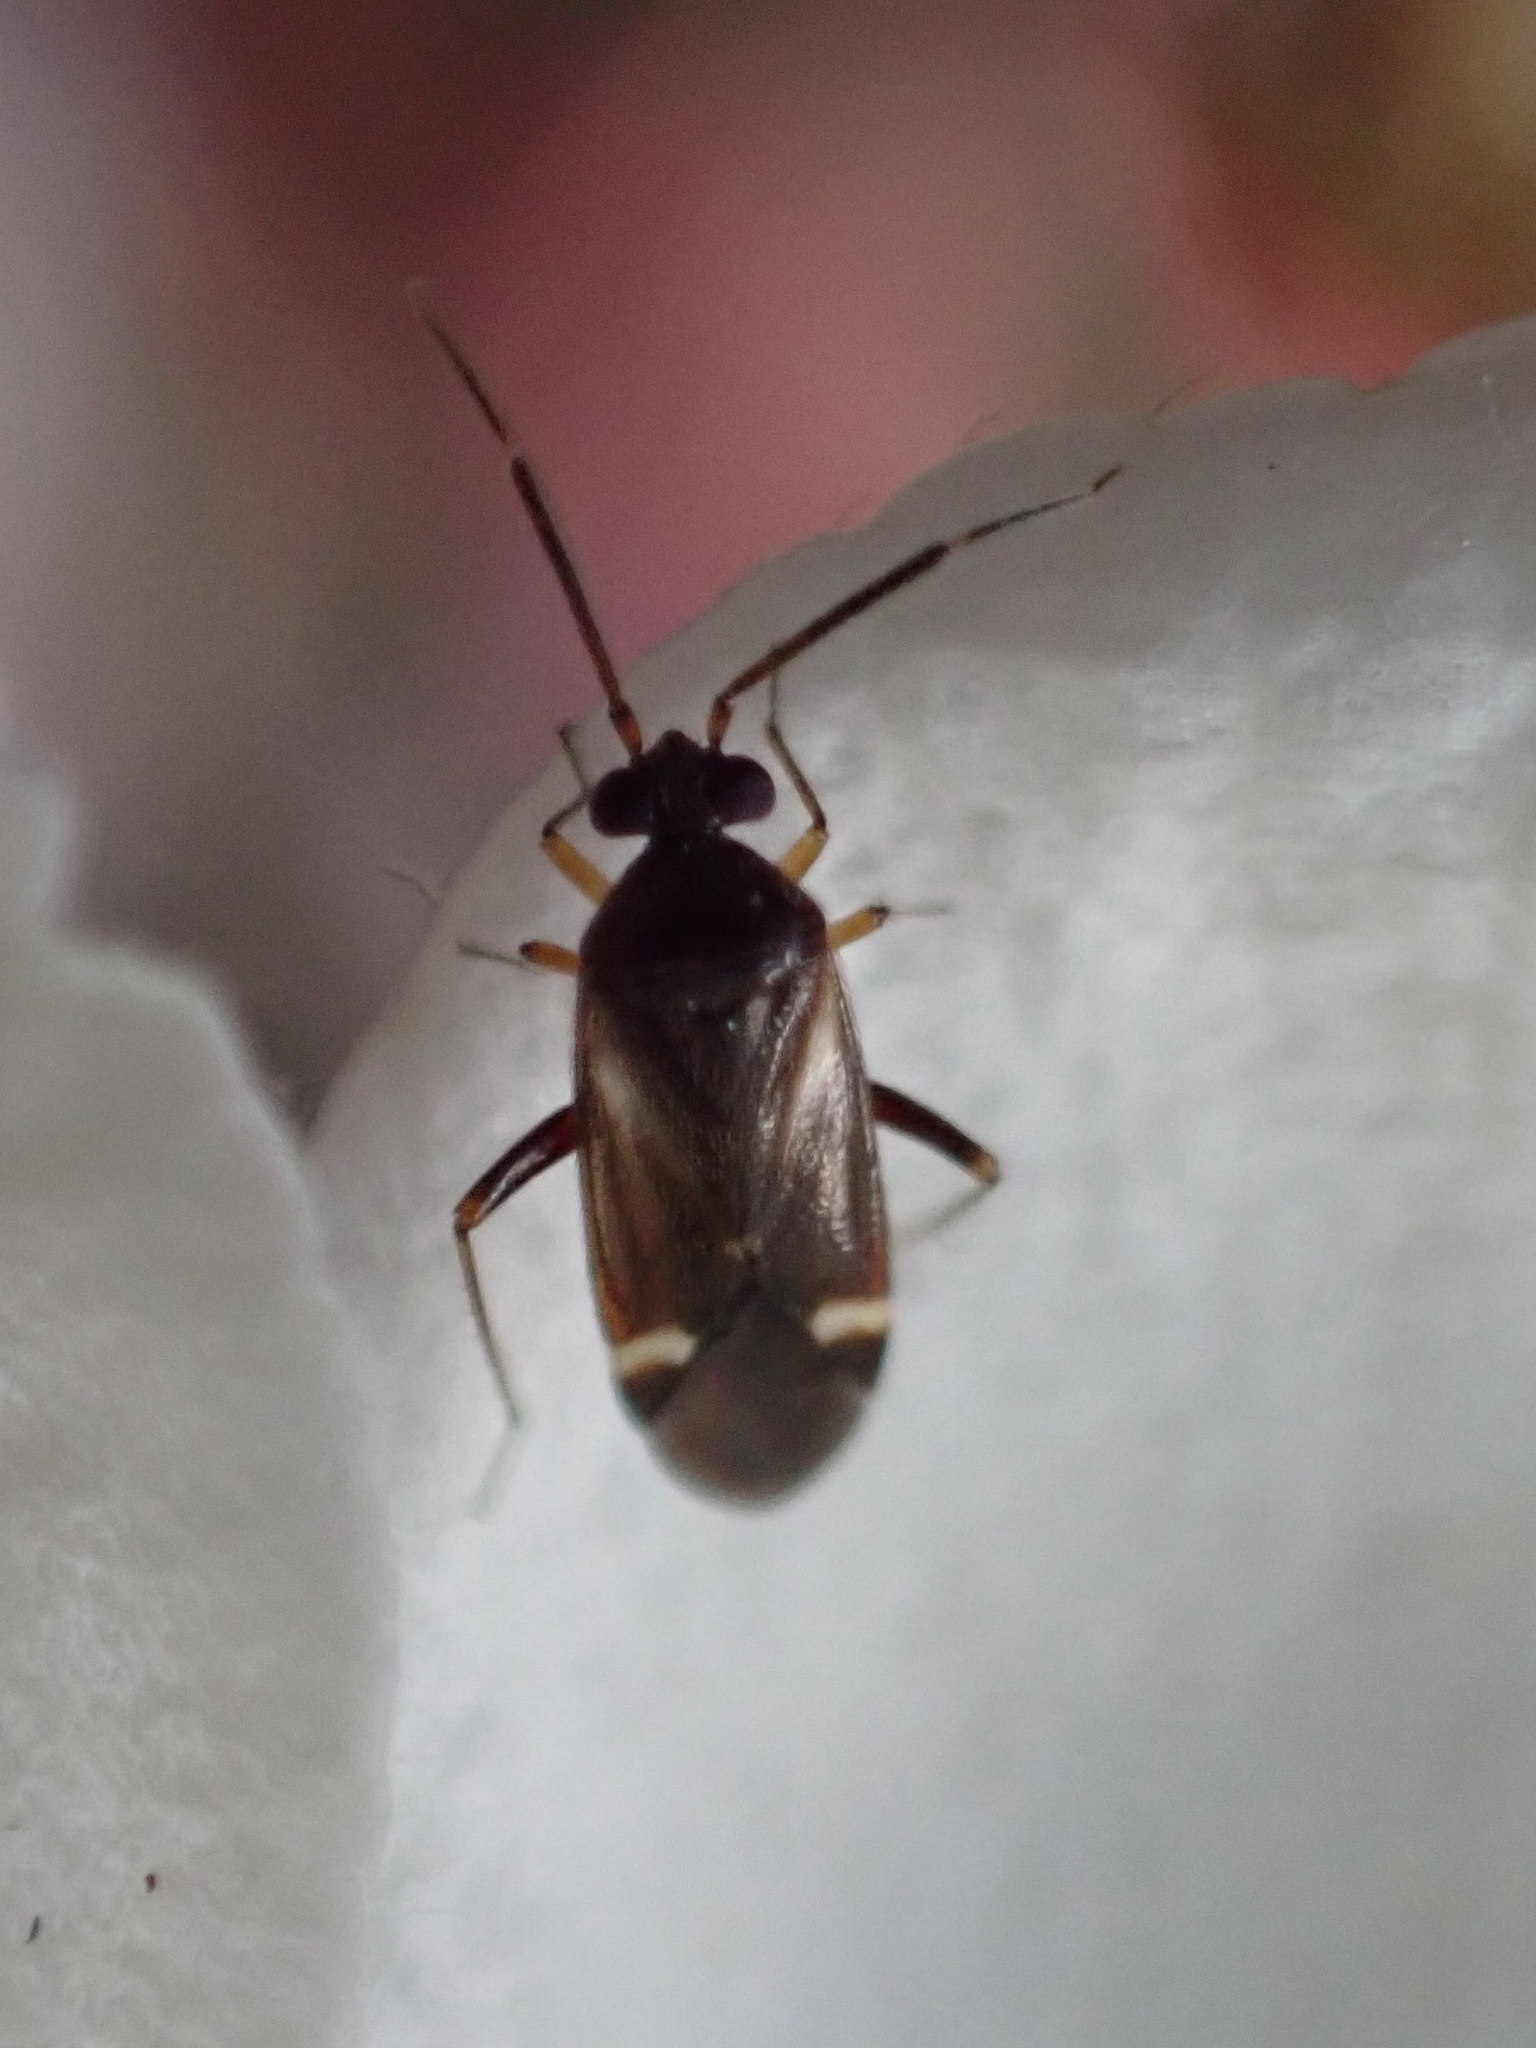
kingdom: Animalia
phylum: Arthropoda
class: Insecta
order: Hemiptera
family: Miridae
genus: Ausejanus
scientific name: Ausejanus albisignatus
